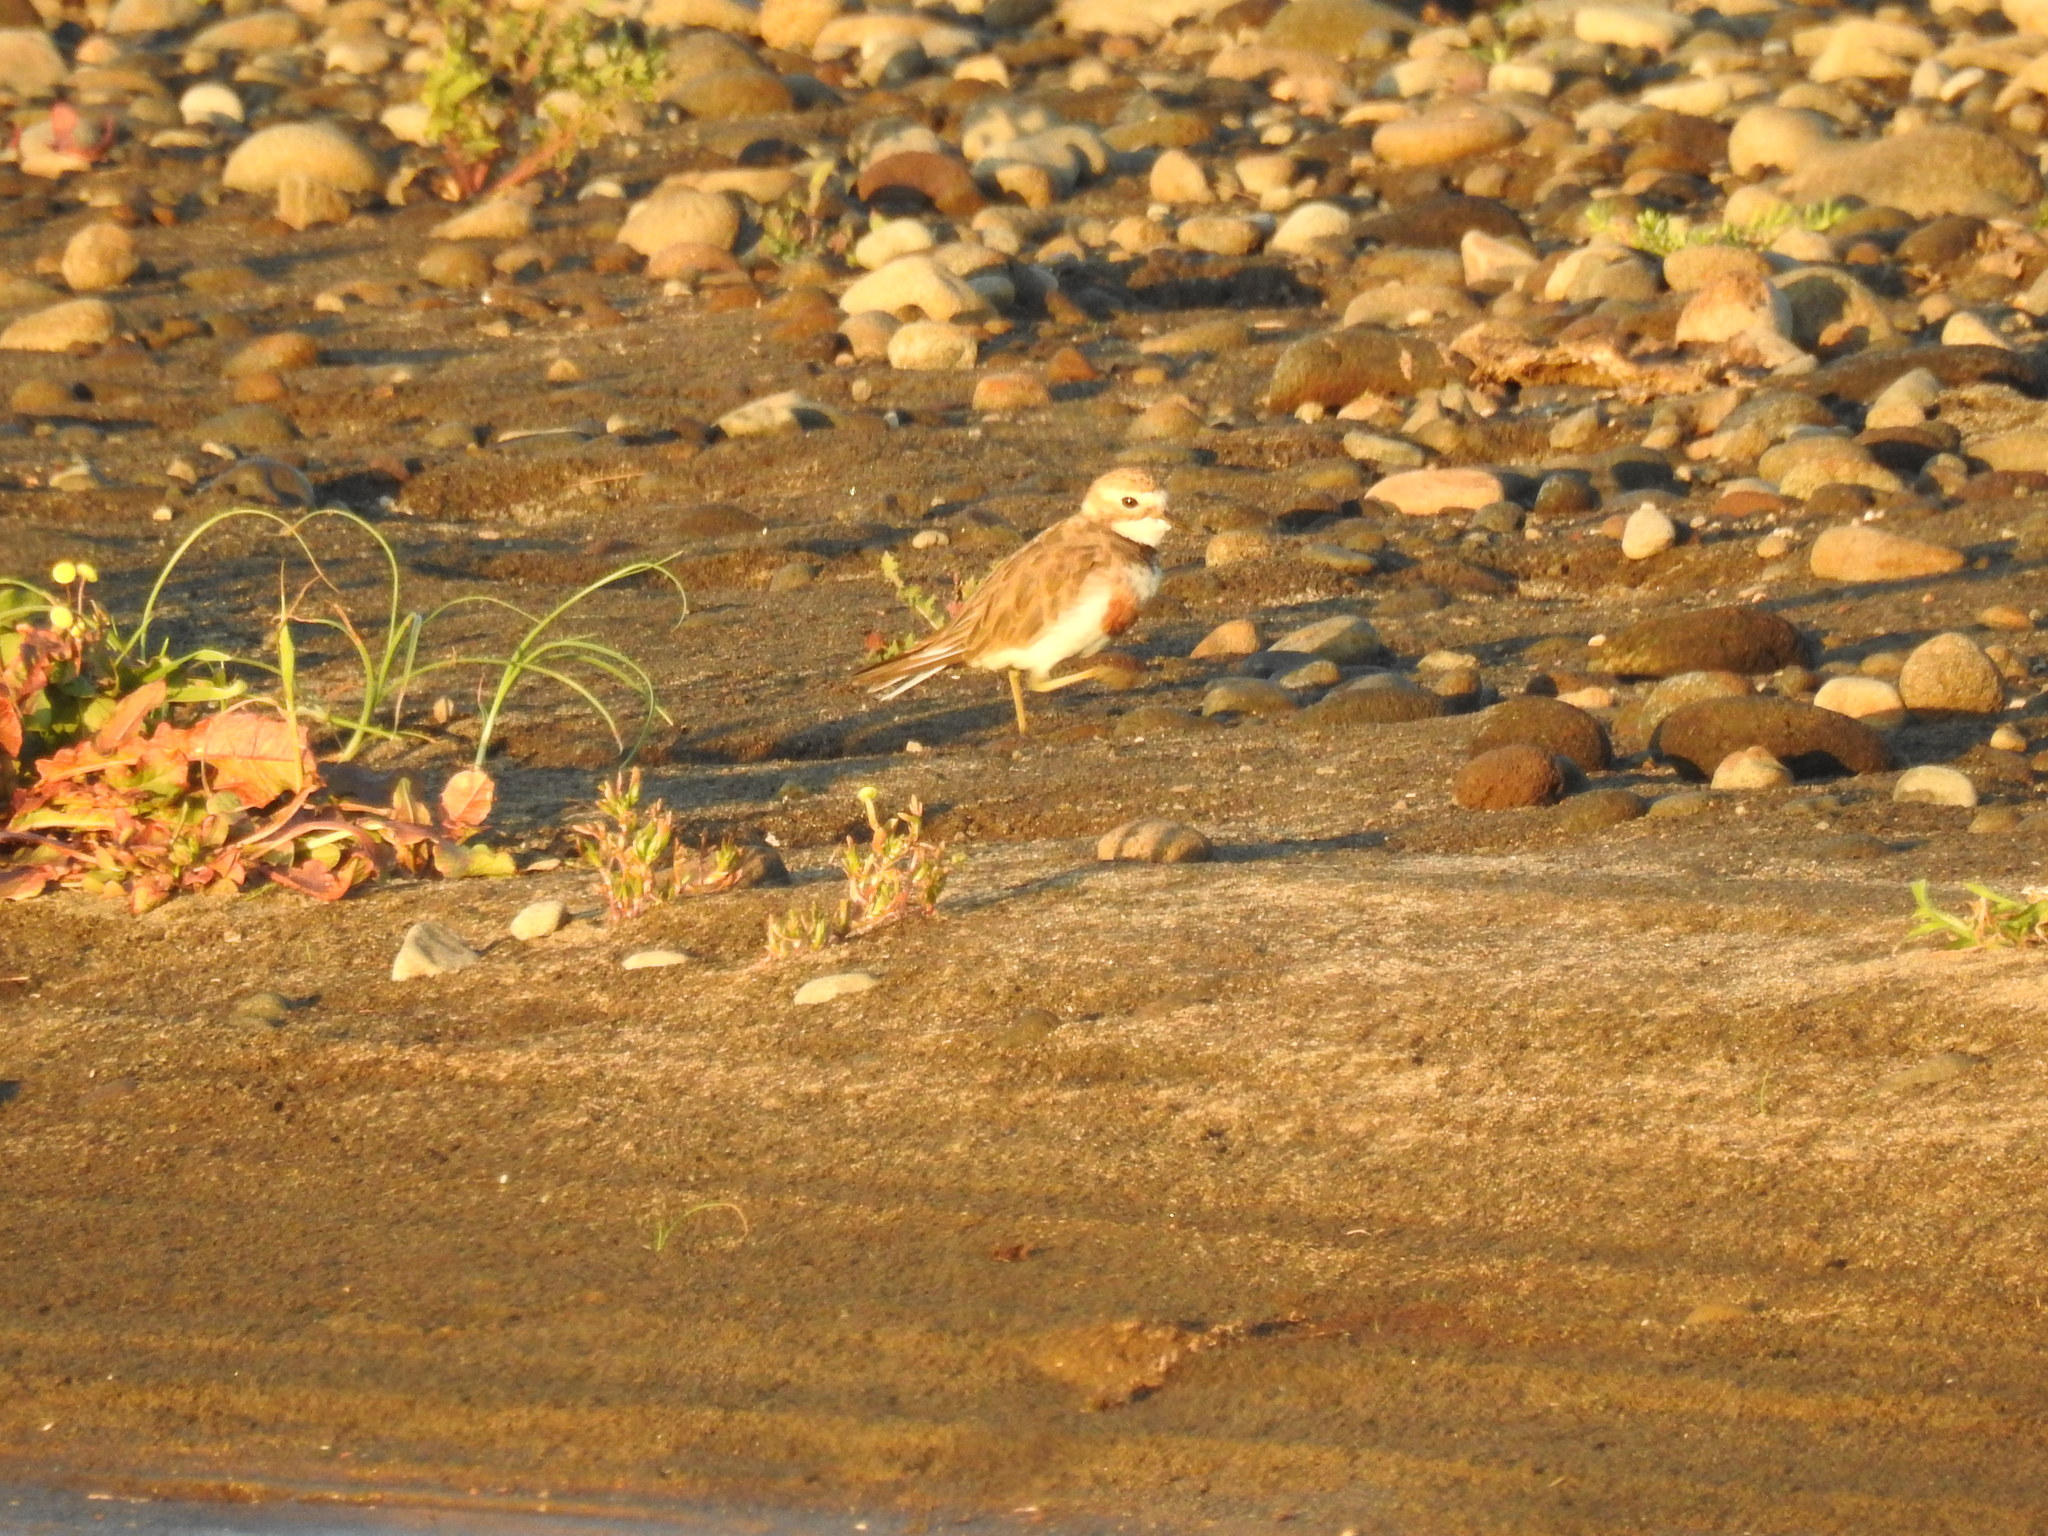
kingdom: Animalia
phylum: Chordata
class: Aves
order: Charadriiformes
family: Charadriidae
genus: Anarhynchus
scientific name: Anarhynchus
